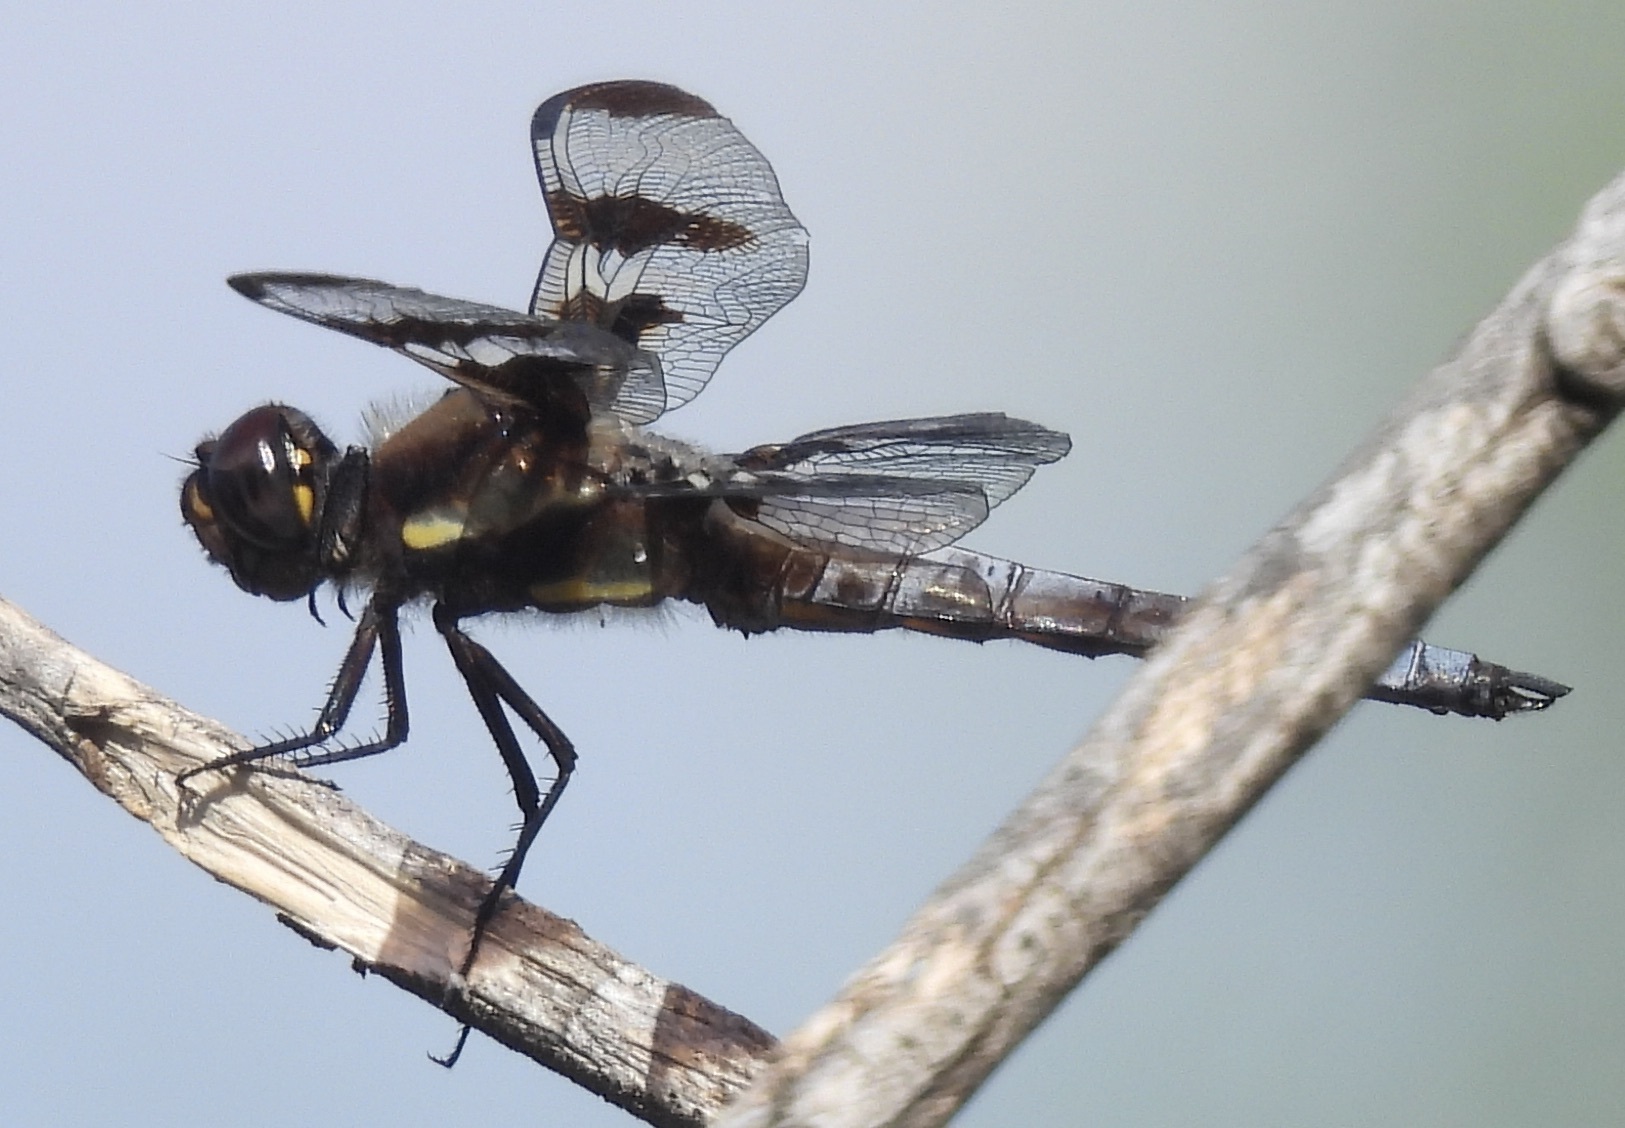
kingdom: Animalia
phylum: Arthropoda
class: Insecta
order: Odonata
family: Libellulidae
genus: Libellula
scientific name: Libellula pulchella
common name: Twelve-spotted skimmer
